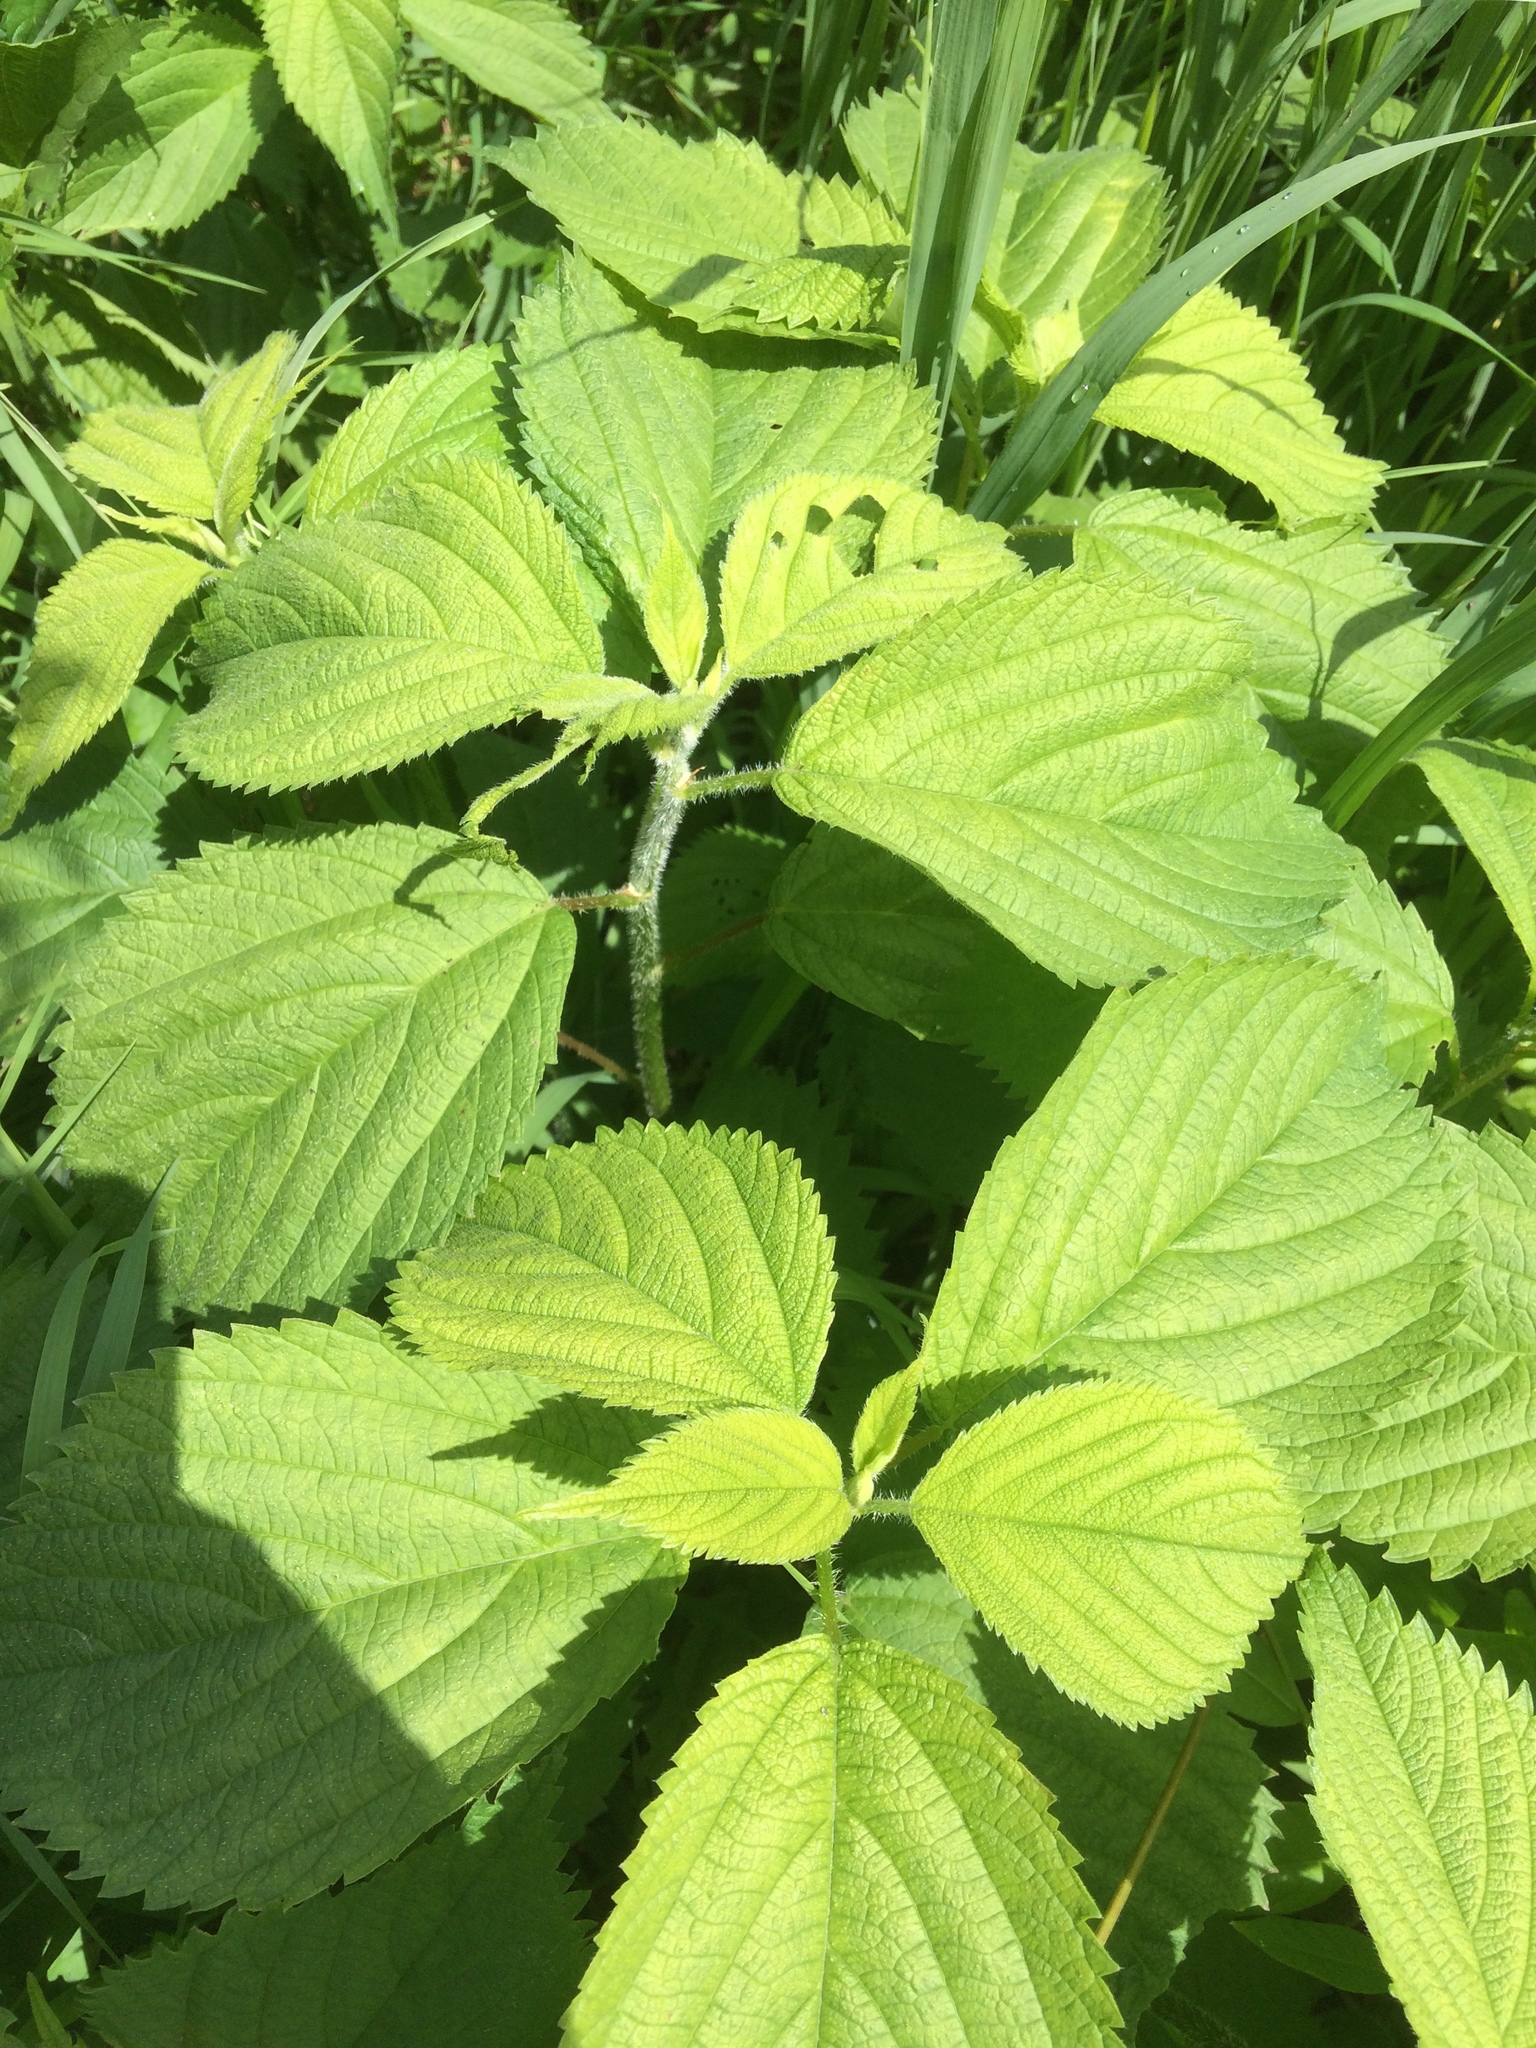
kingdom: Plantae
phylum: Tracheophyta
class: Magnoliopsida
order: Rosales
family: Urticaceae
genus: Laportea
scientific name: Laportea canadensis
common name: Canada nettle
